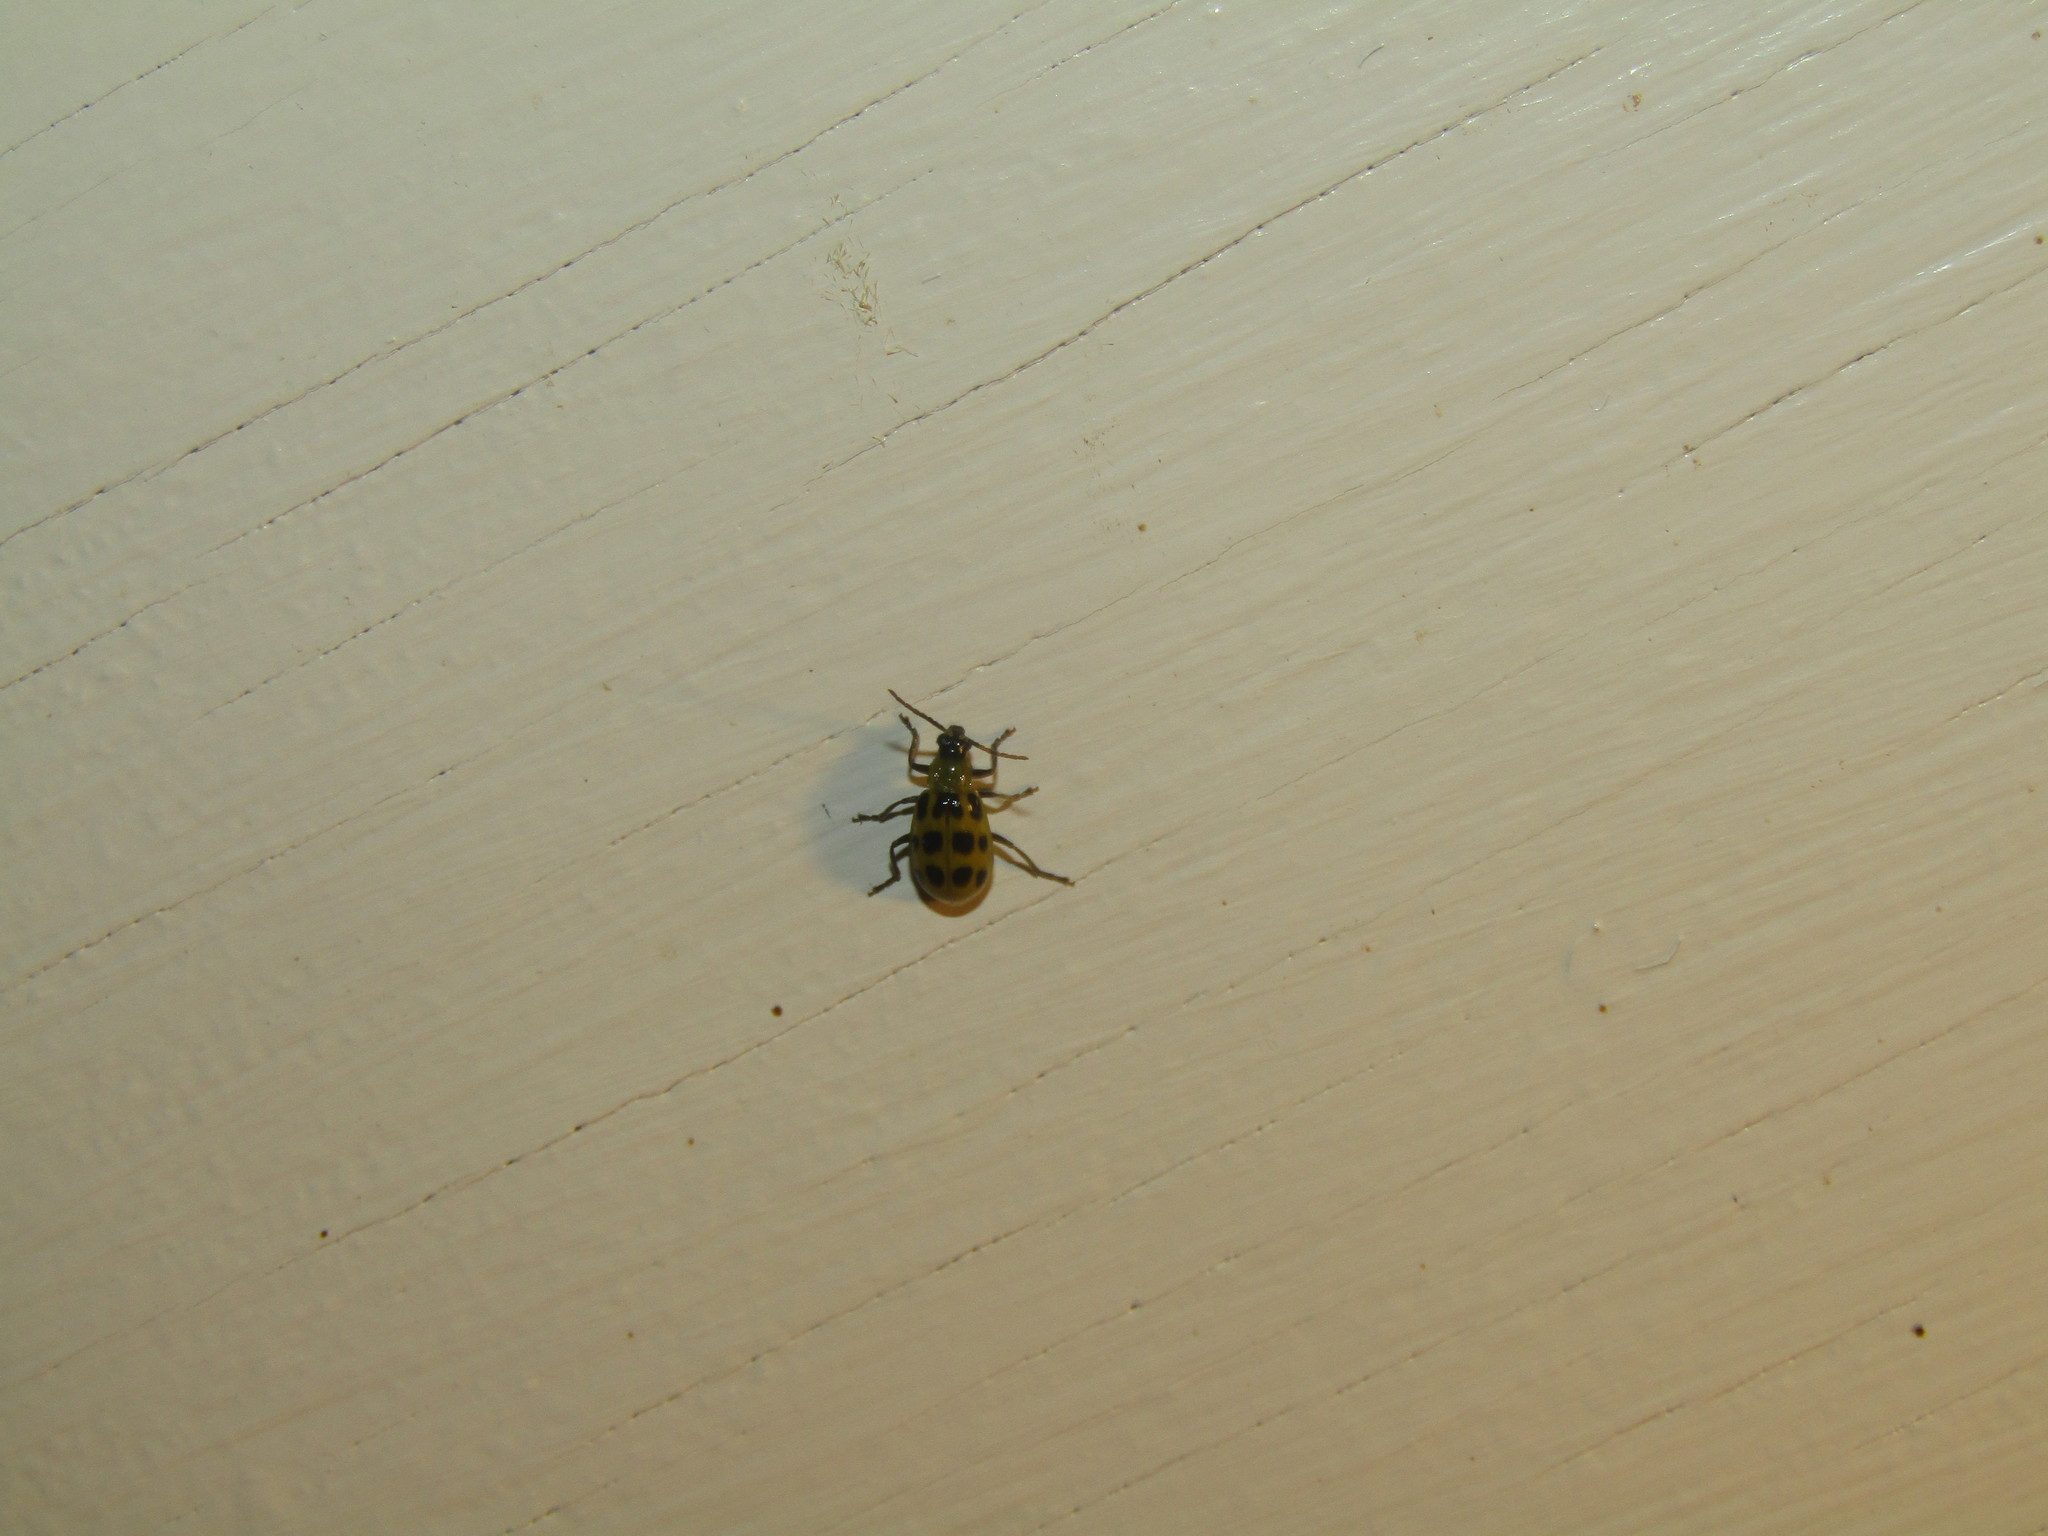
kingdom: Animalia
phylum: Arthropoda
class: Insecta
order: Coleoptera
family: Chrysomelidae
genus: Diabrotica
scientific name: Diabrotica undecimpunctata
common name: Spotted cucumber beetle
